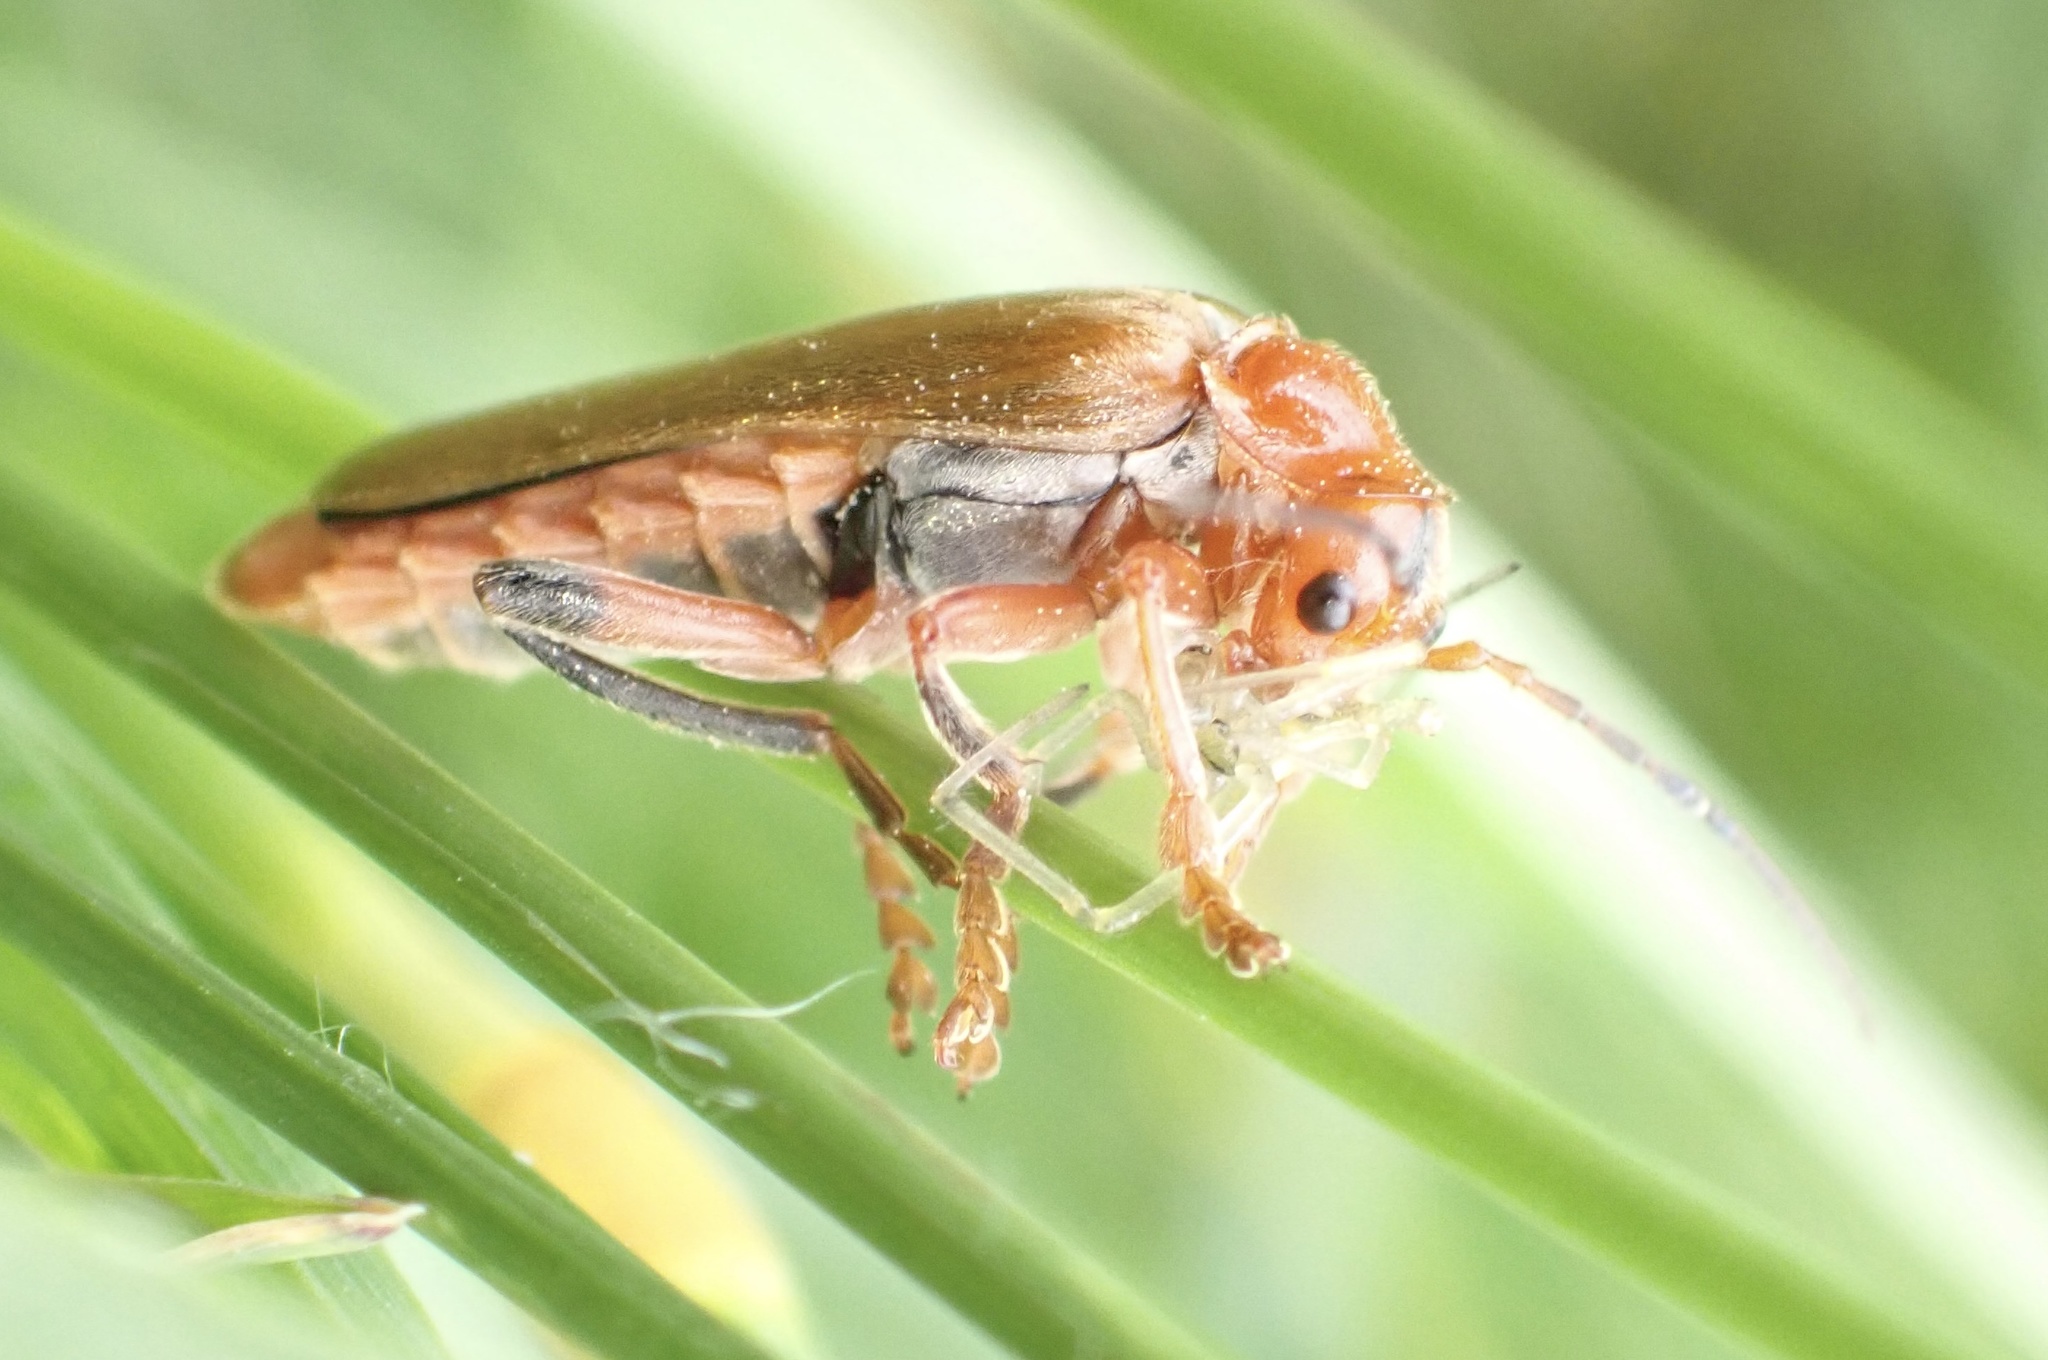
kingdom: Animalia
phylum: Arthropoda
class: Insecta
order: Coleoptera
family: Cantharidae
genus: Cantharis
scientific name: Cantharis livida
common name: Livid soldier beetle
